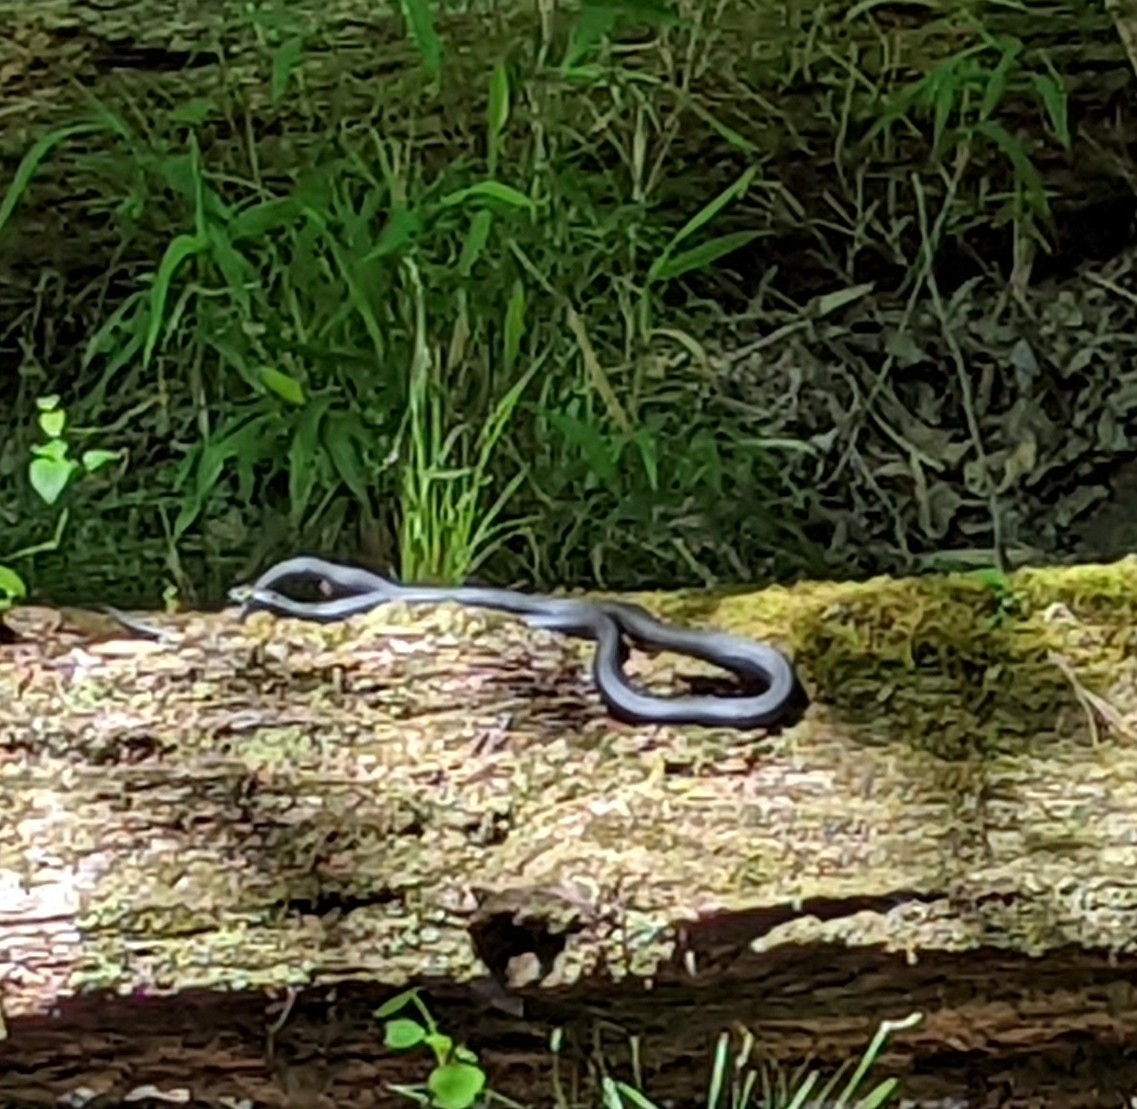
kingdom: Animalia
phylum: Chordata
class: Squamata
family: Colubridae
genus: Coluber
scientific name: Coluber constrictor
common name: Eastern racer
